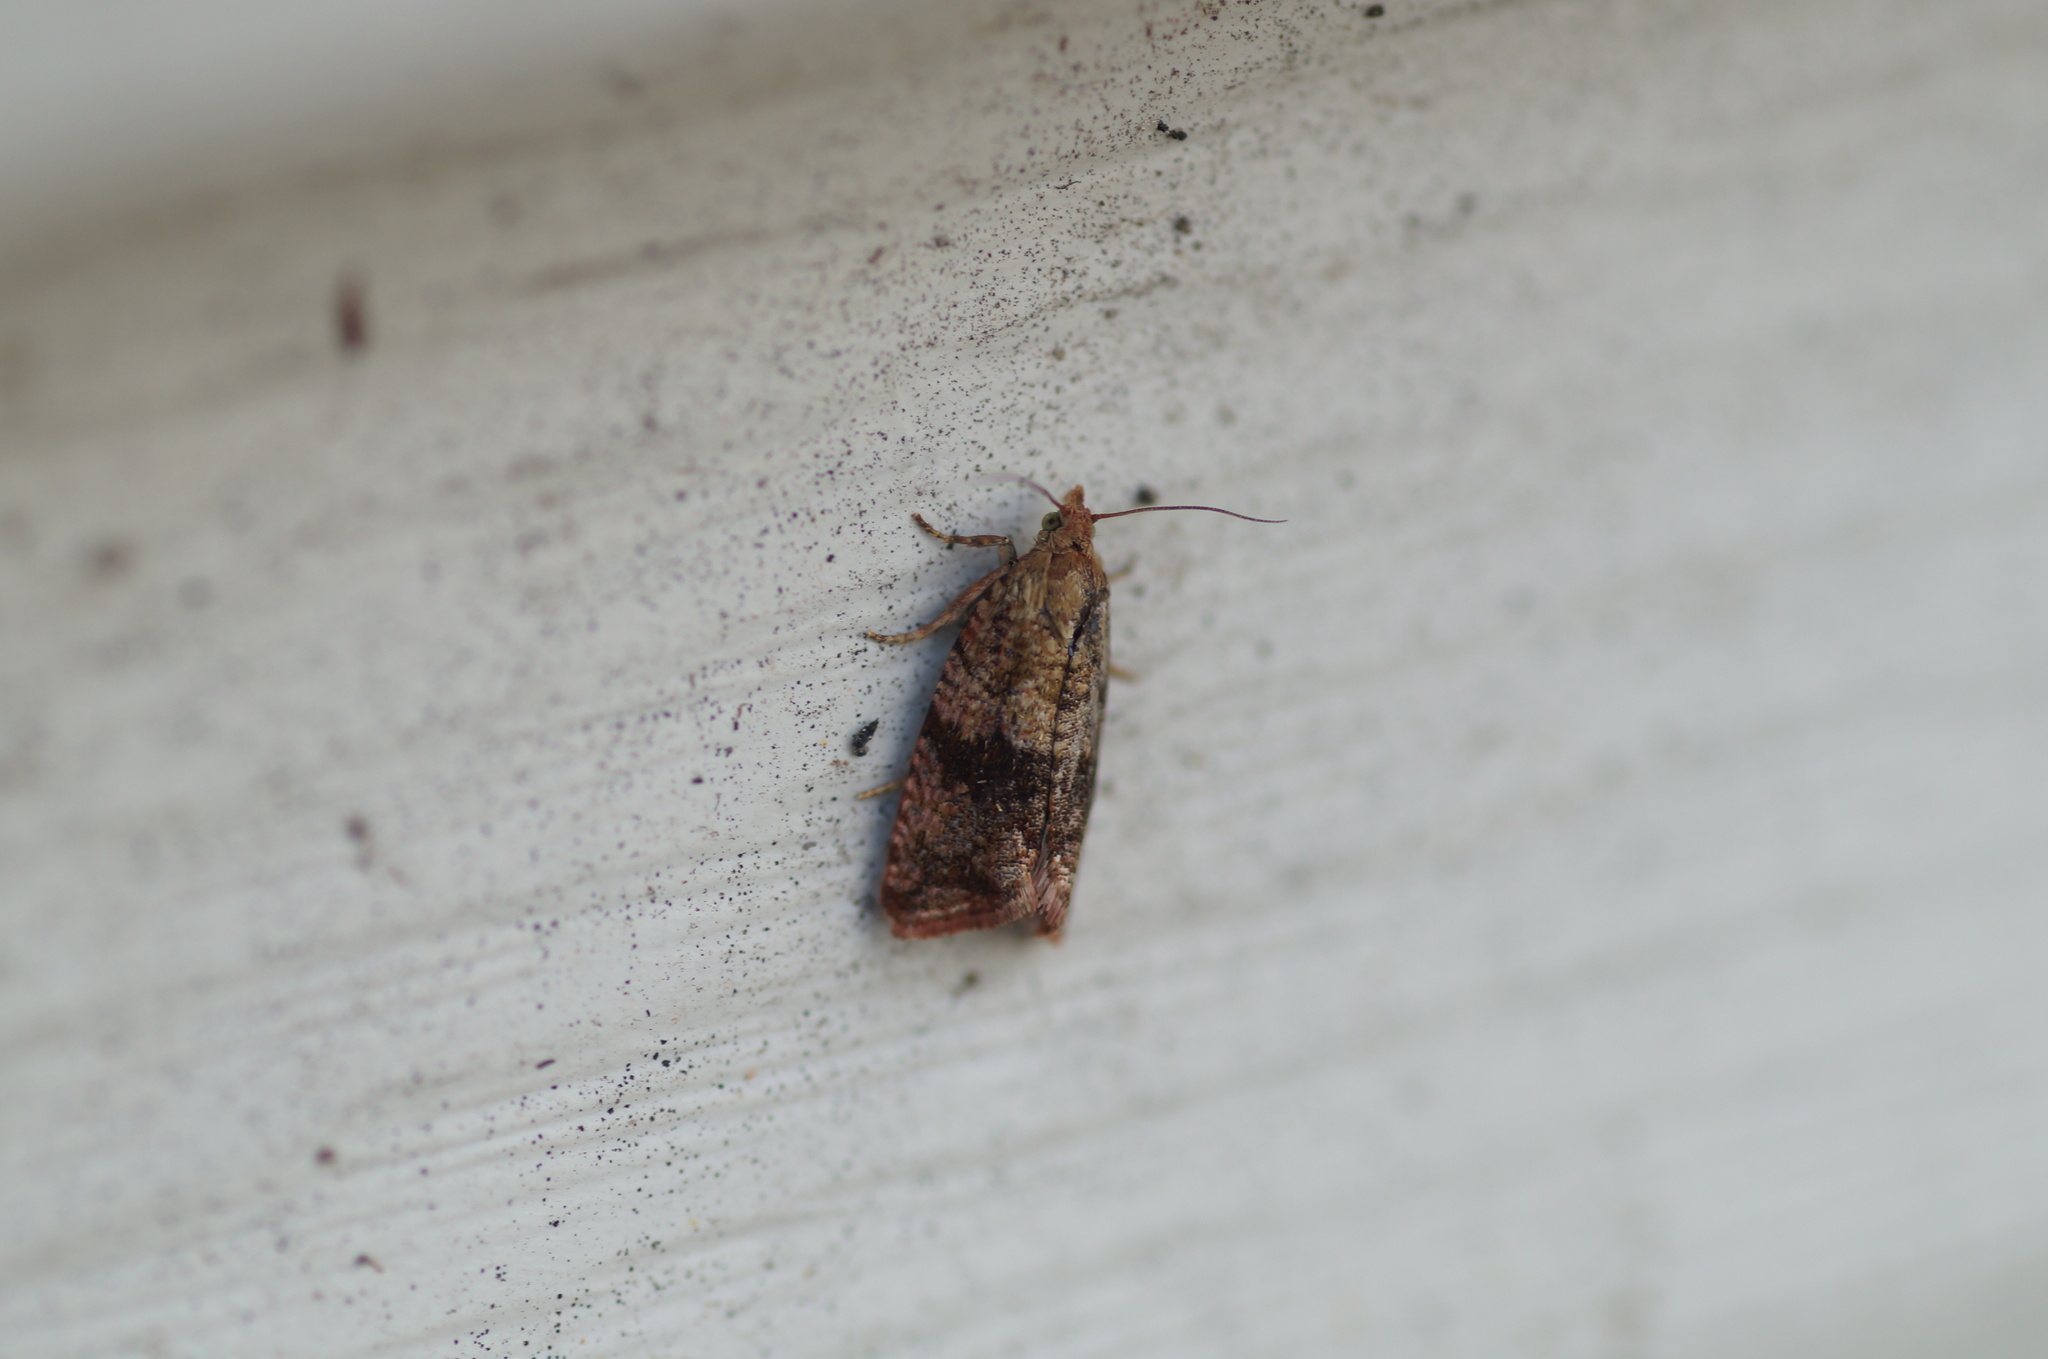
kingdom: Animalia
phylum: Arthropoda
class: Insecta
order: Lepidoptera
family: Tortricidae
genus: Celypha
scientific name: Celypha striana
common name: Barred marble
